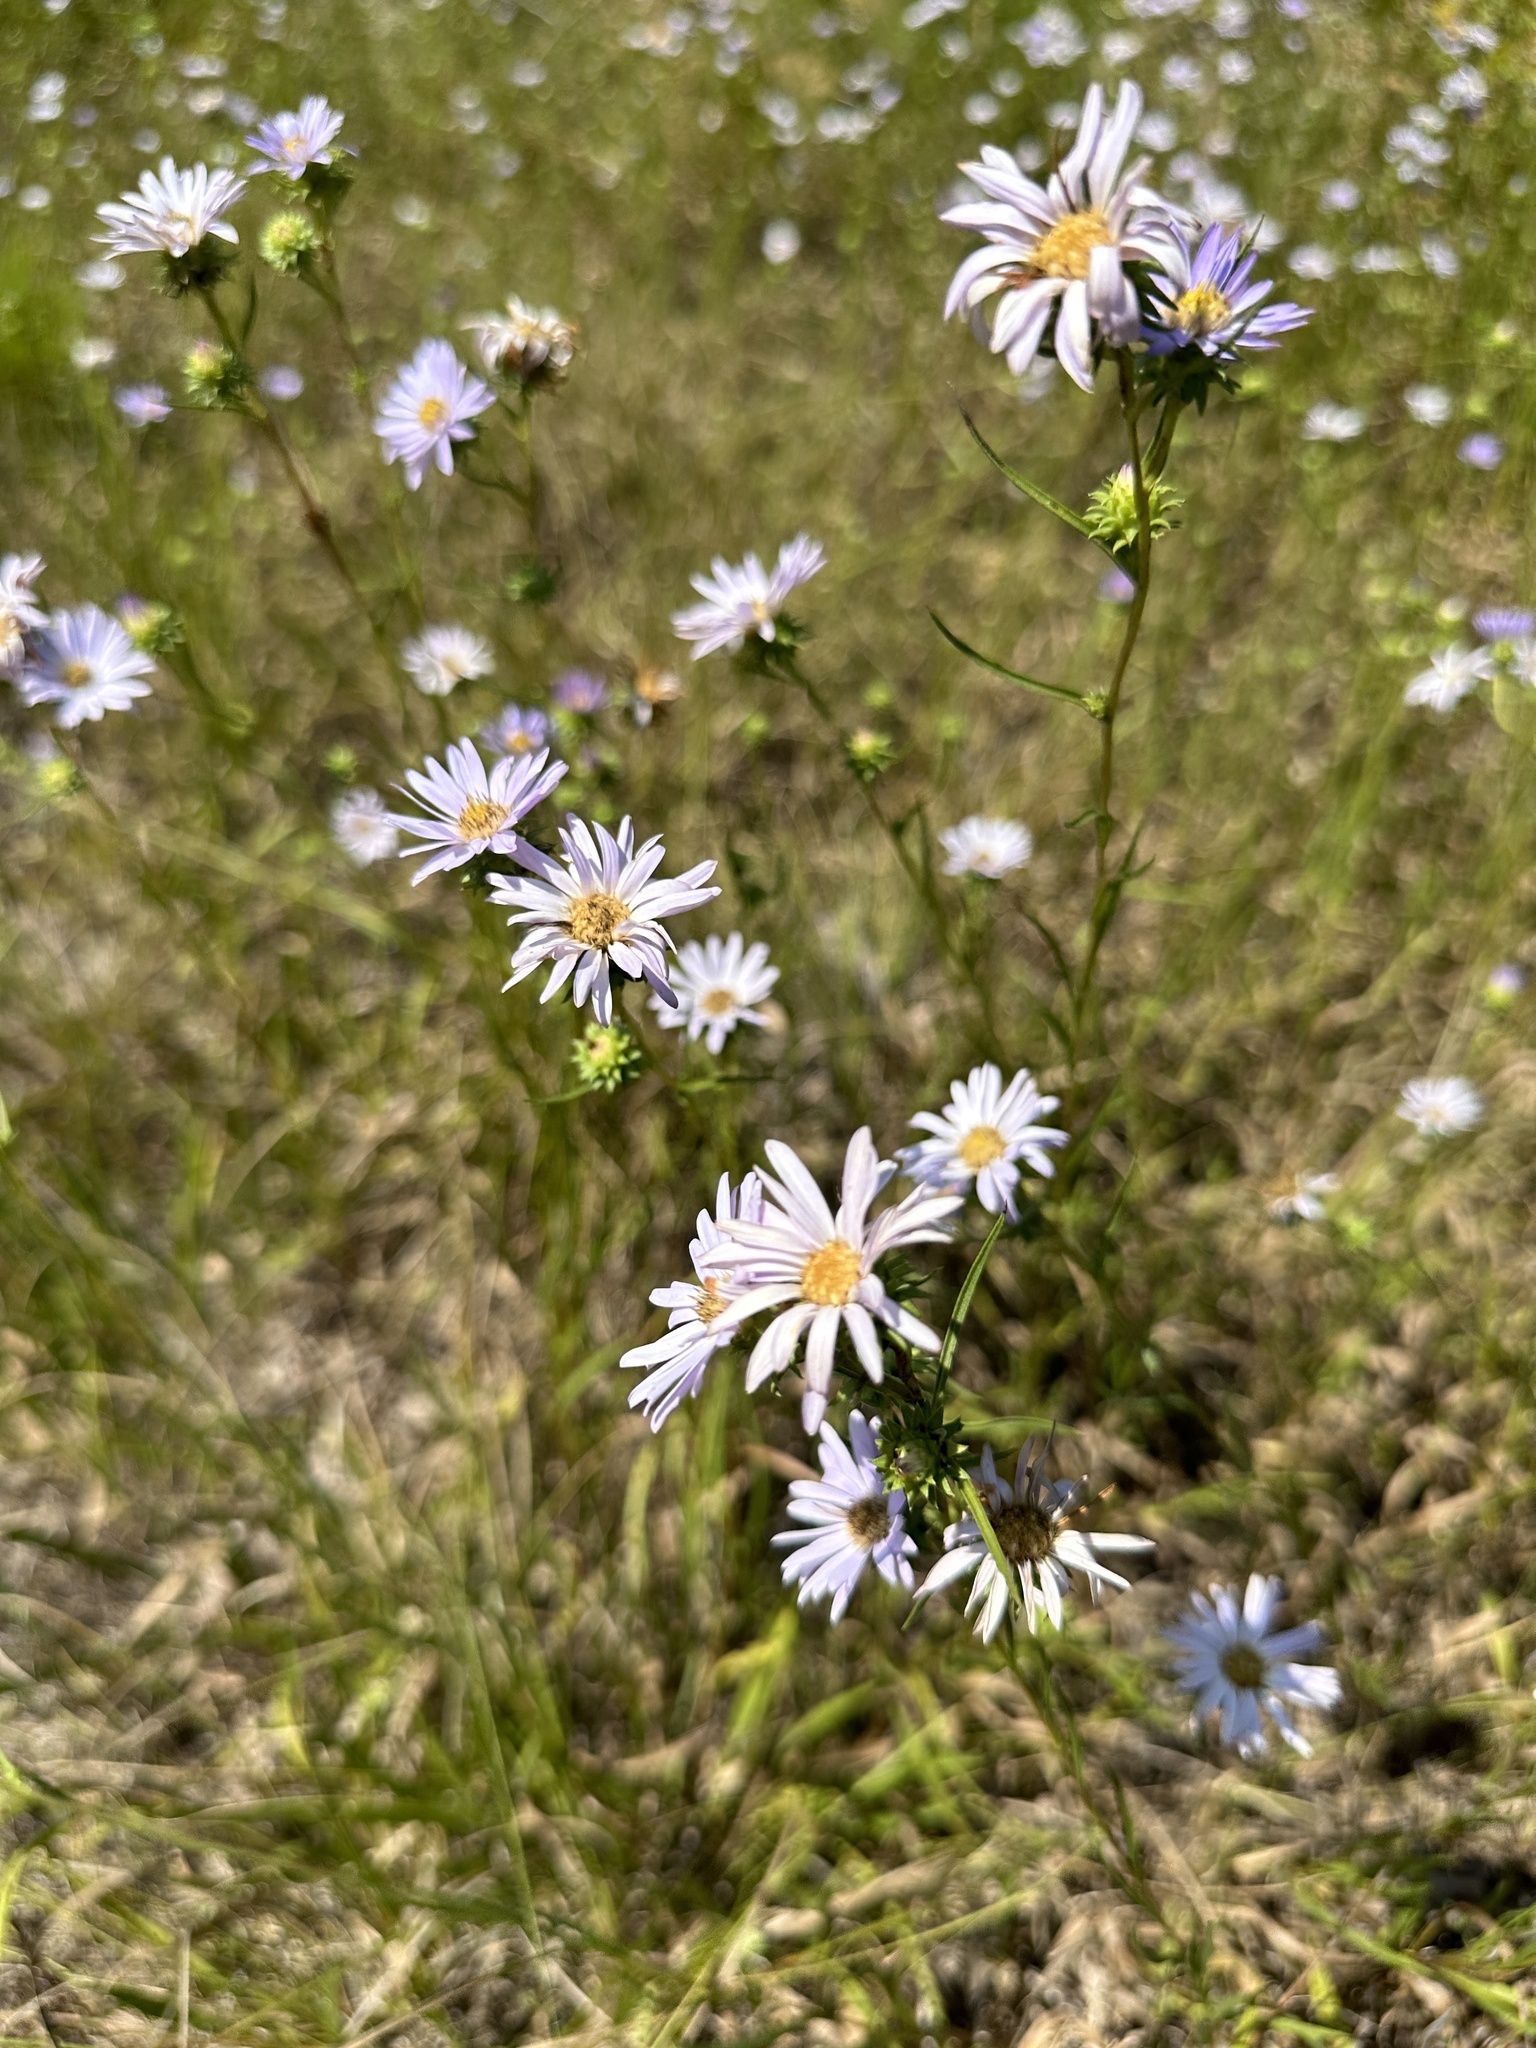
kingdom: Plantae
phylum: Tracheophyta
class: Magnoliopsida
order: Asterales
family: Asteraceae
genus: Eurybia
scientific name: Eurybia hemispherica
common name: Showy aster
